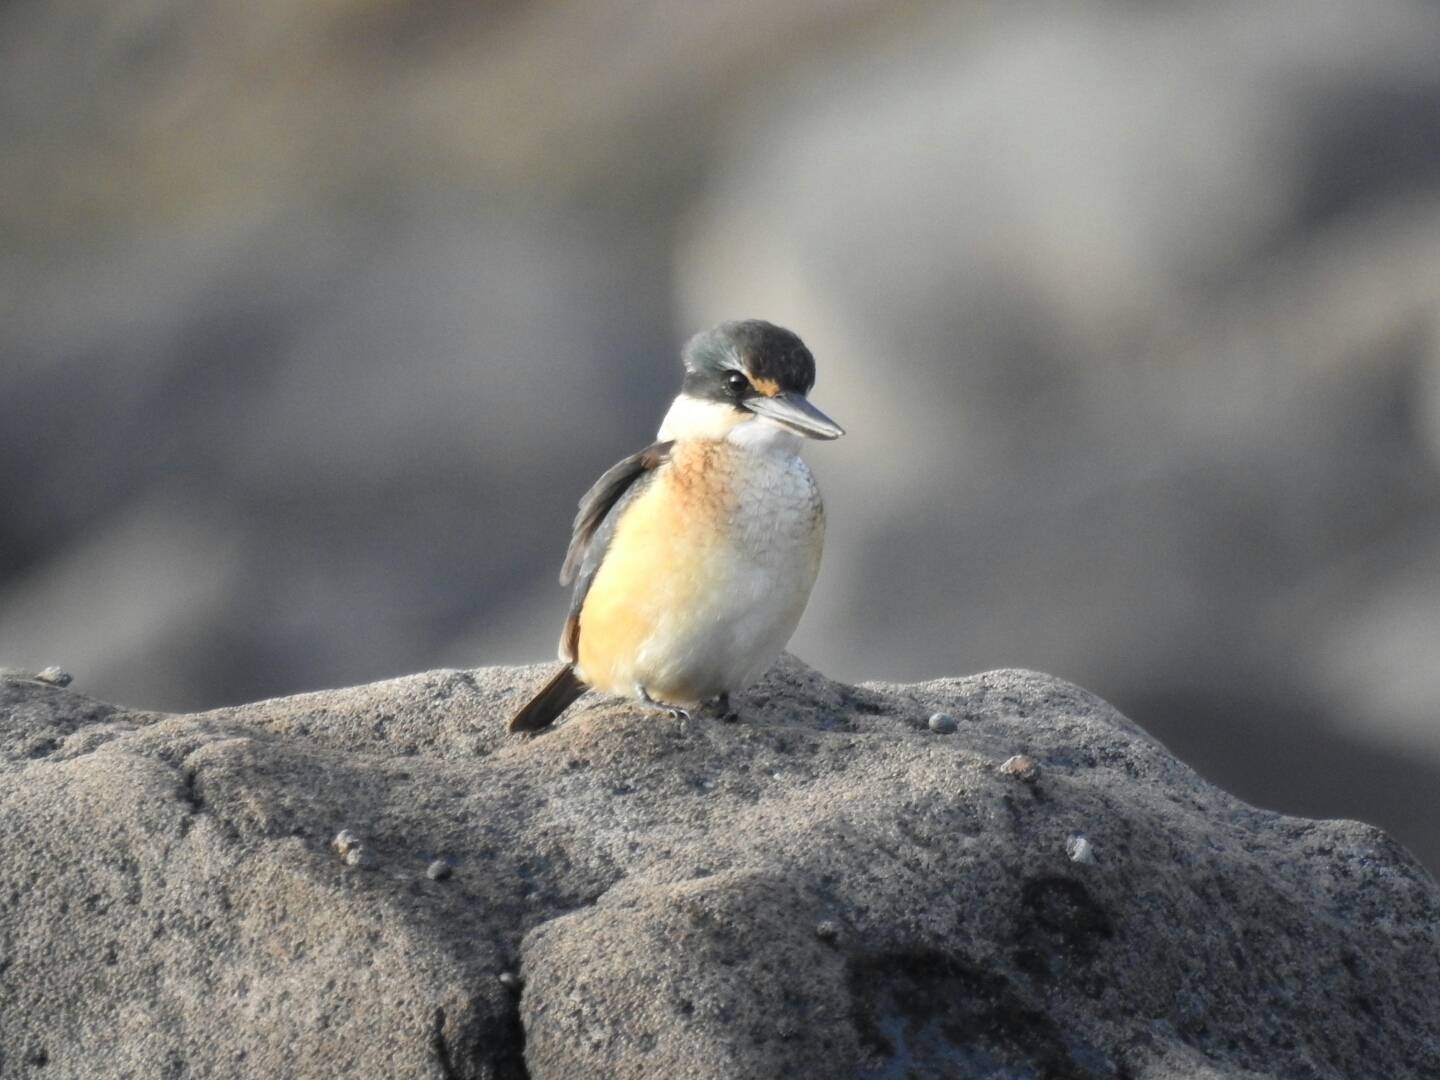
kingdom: Animalia
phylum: Chordata
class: Aves
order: Coraciiformes
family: Alcedinidae
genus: Todiramphus
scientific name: Todiramphus sanctus
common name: Sacred kingfisher
